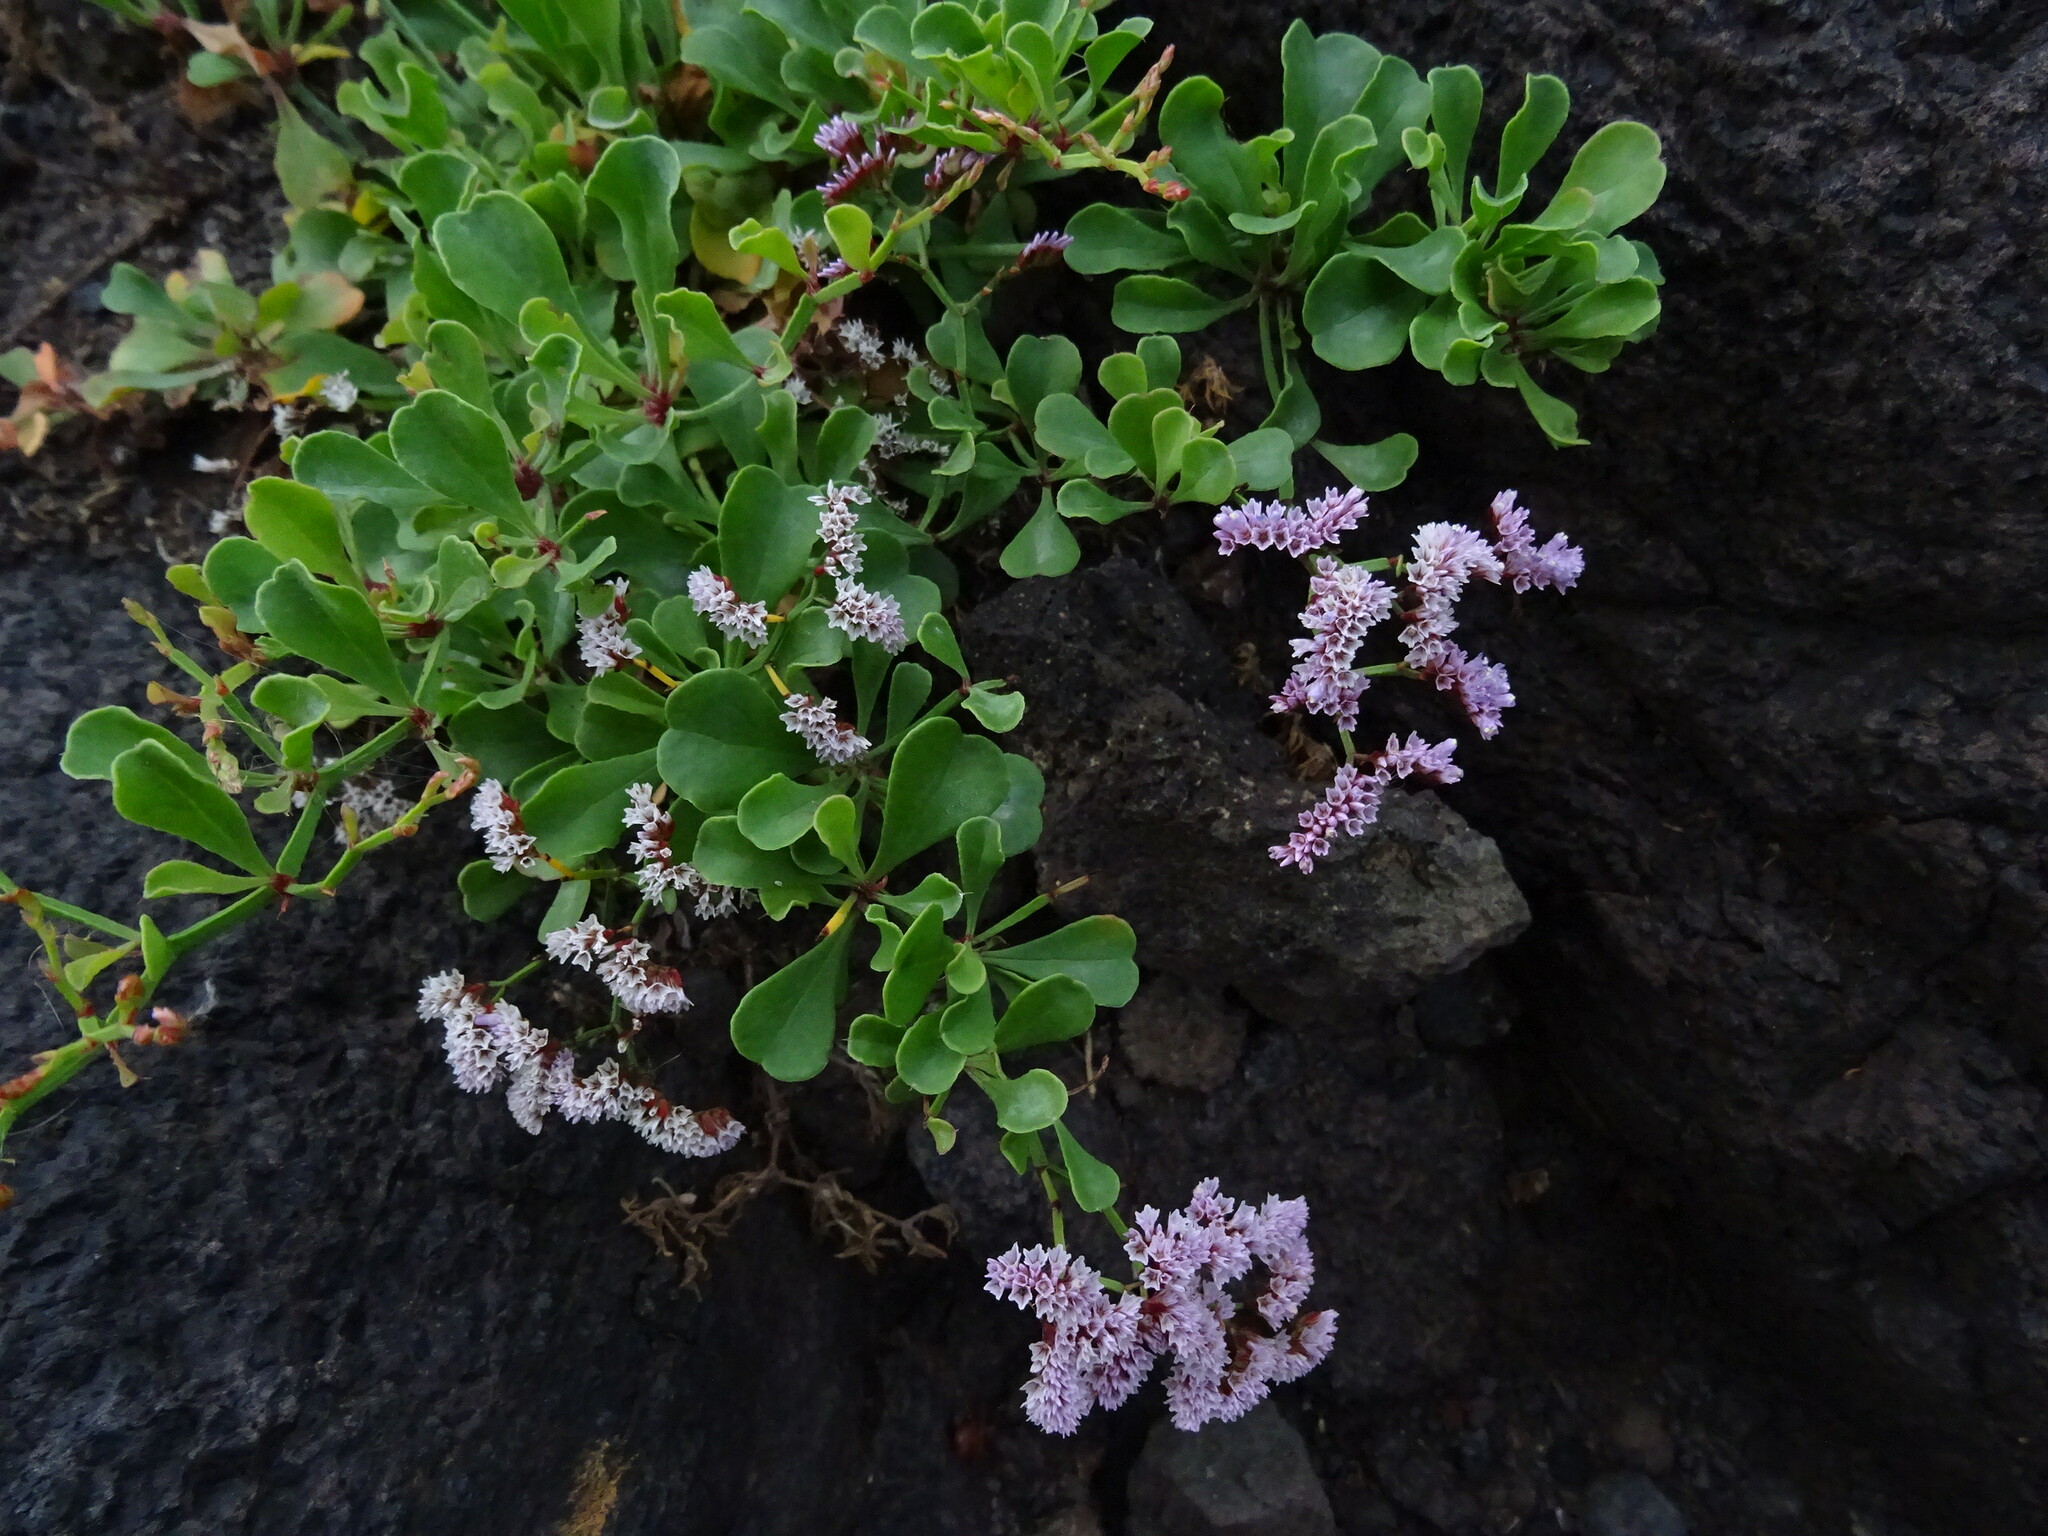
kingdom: Plantae
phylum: Tracheophyta
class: Magnoliopsida
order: Caryophyllales
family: Plumbaginaceae
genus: Limonium
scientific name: Limonium pectinatum
